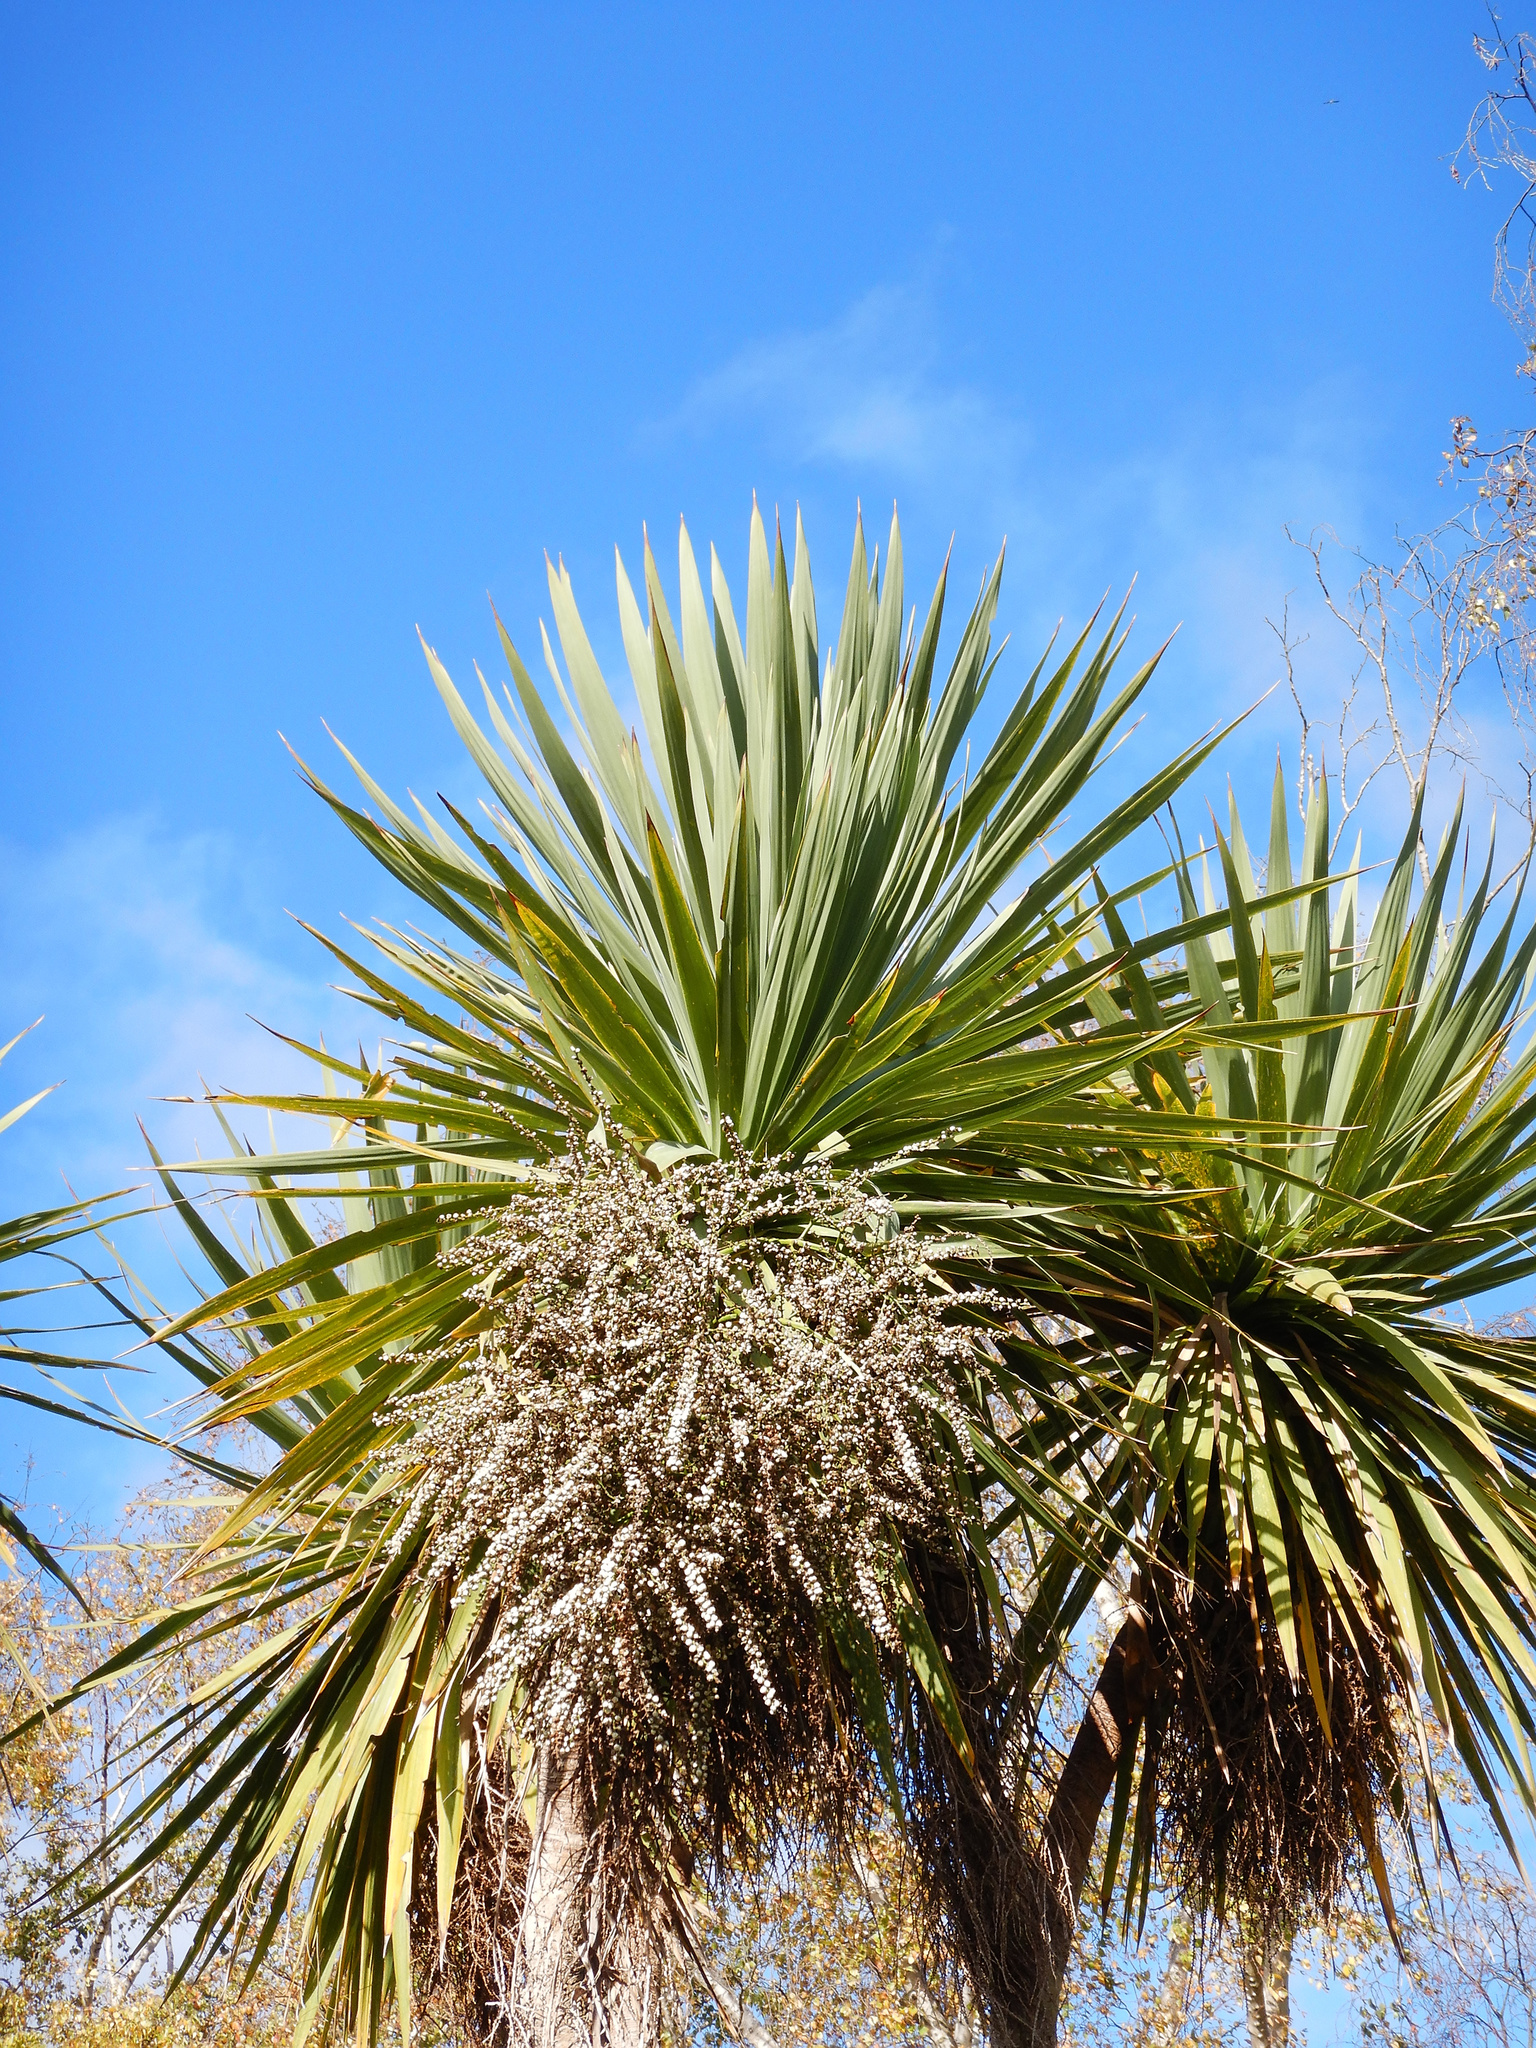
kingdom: Plantae
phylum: Tracheophyta
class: Liliopsida
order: Asparagales
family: Asparagaceae
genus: Cordyline
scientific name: Cordyline australis
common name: Cabbage-palm
